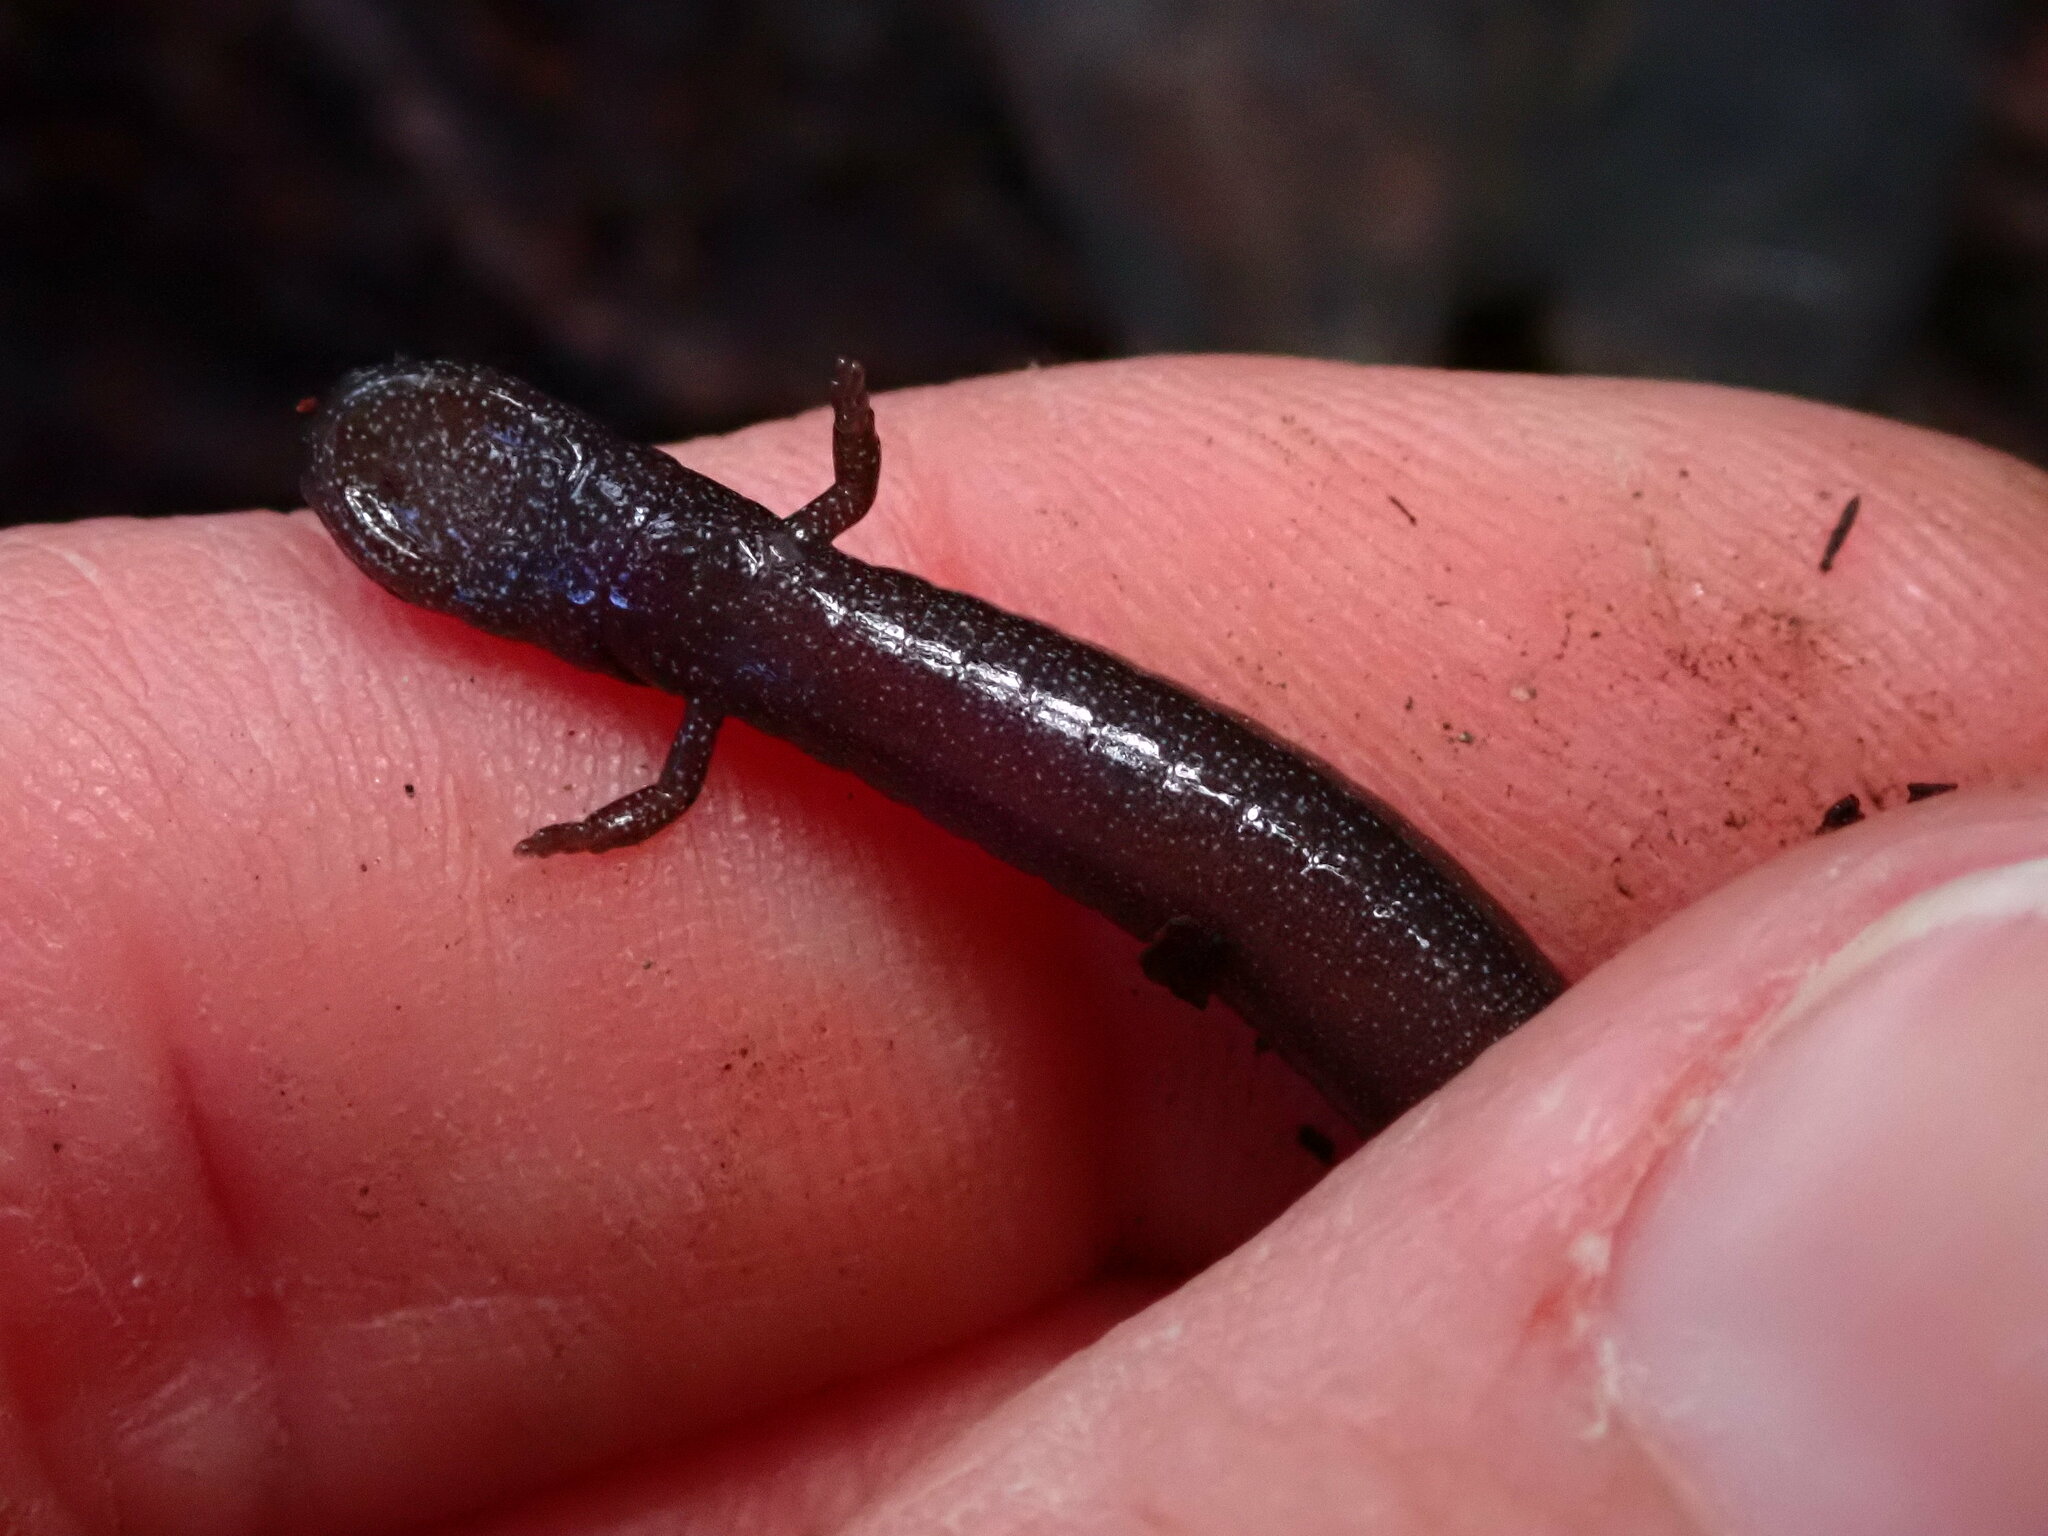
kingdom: Animalia
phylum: Chordata
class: Amphibia
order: Caudata
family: Plethodontidae
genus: Batrachoseps
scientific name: Batrachoseps nigriventris
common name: Black-bellied slender salamander
